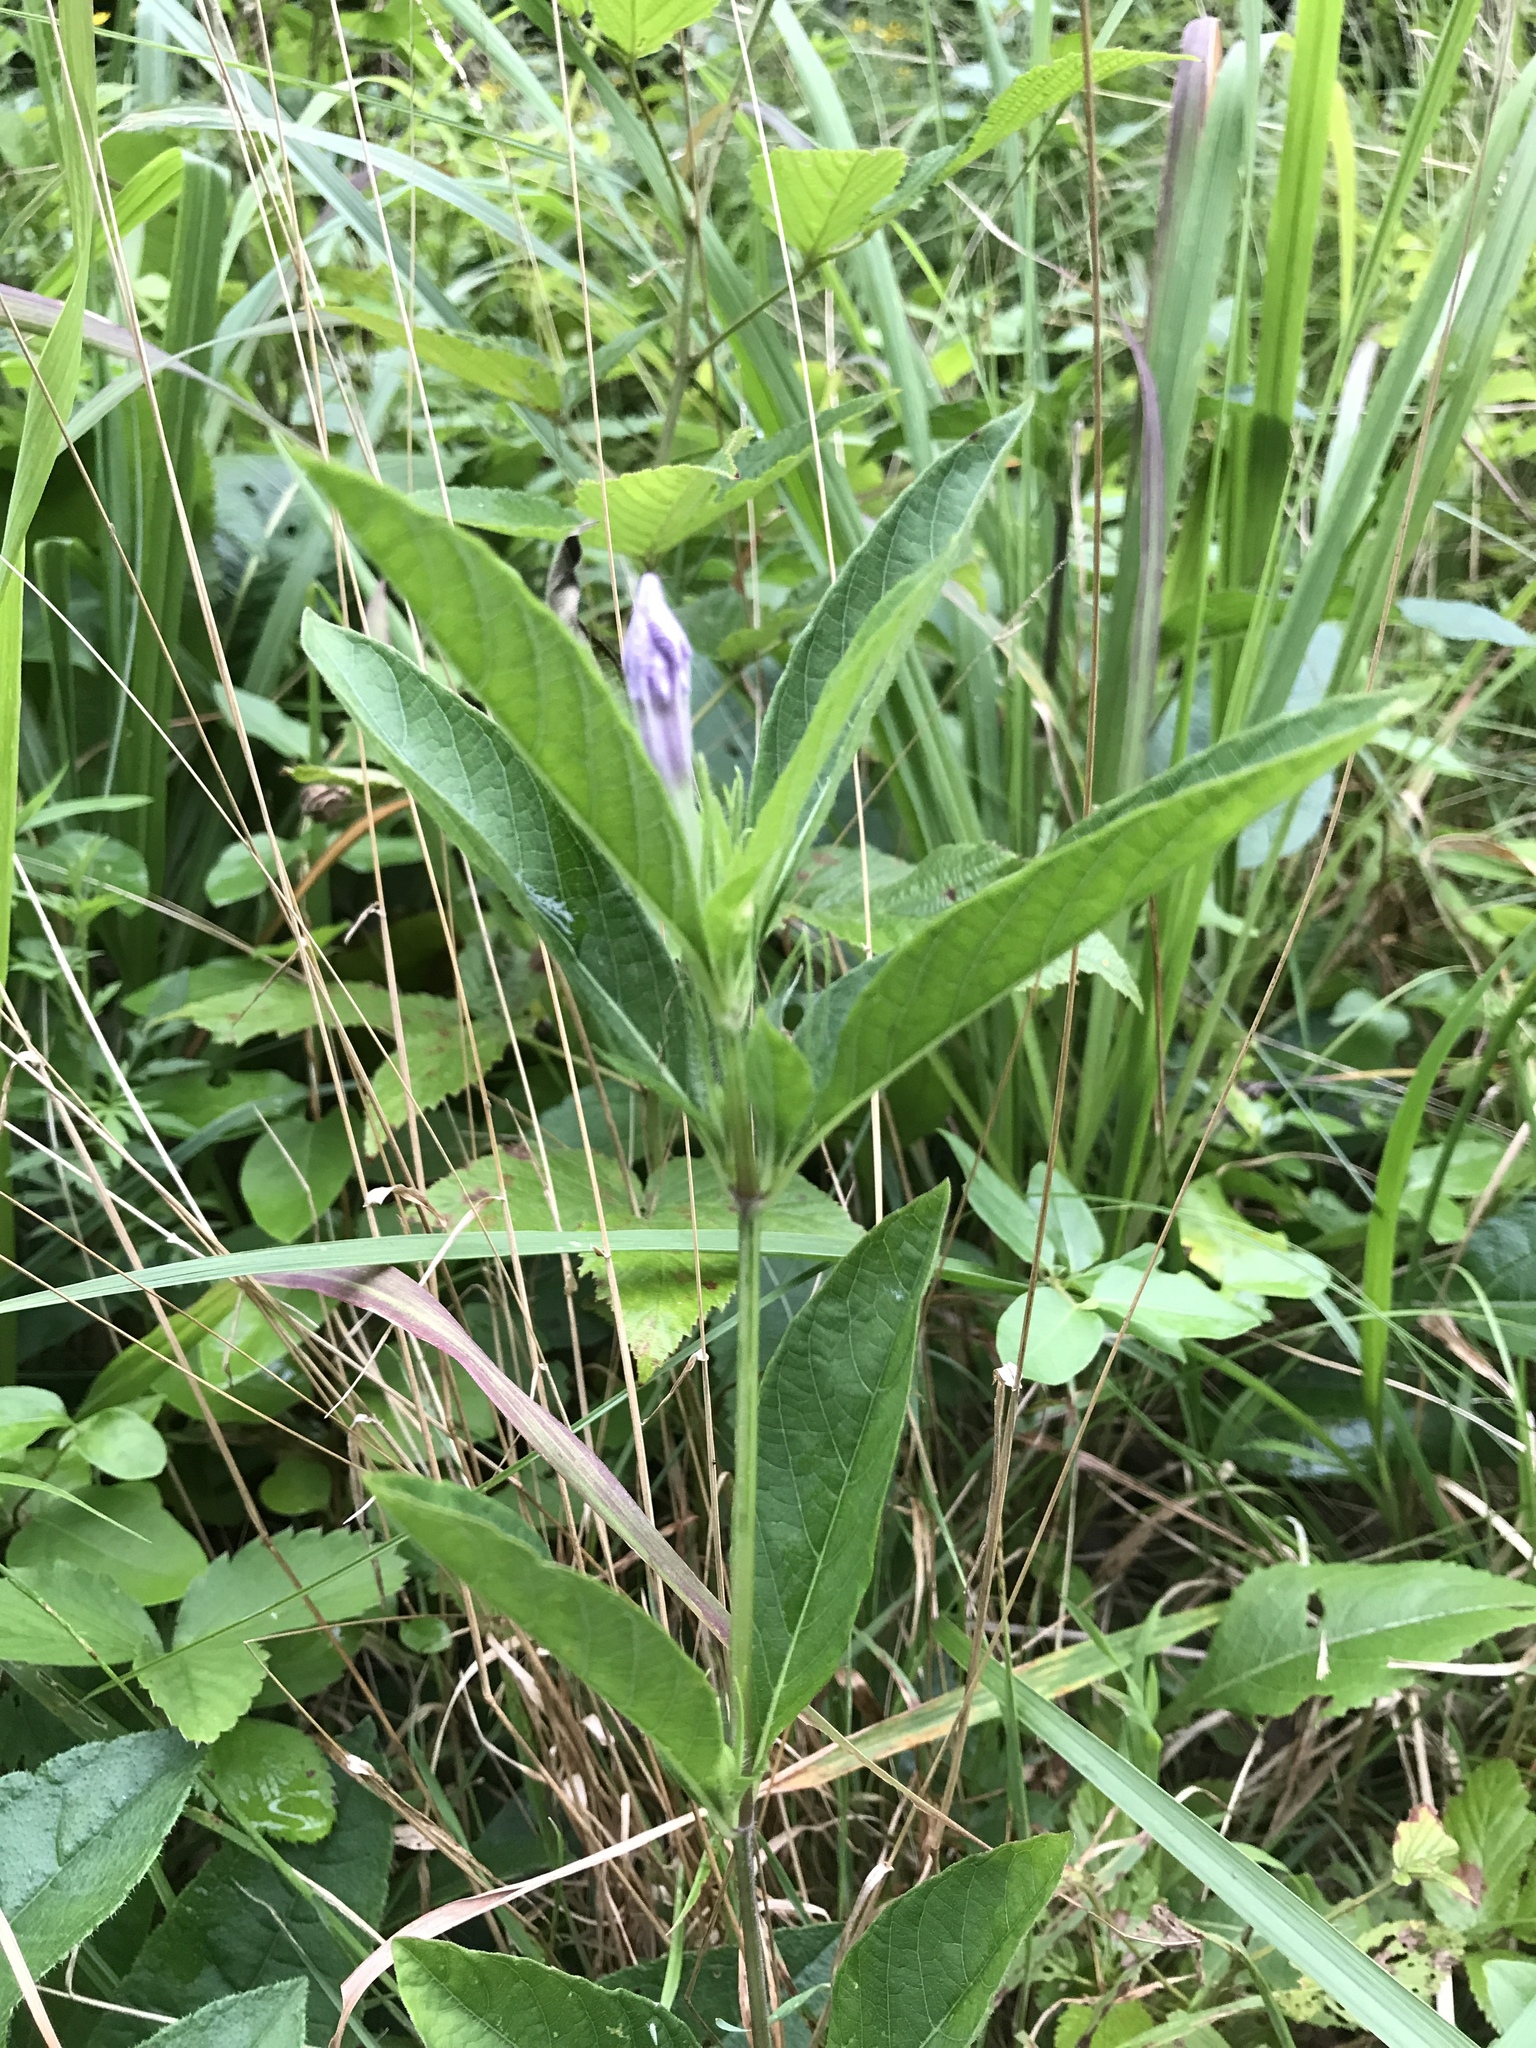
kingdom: Plantae
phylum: Tracheophyta
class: Magnoliopsida
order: Lamiales
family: Acanthaceae
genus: Ruellia
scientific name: Ruellia caroliniensis
